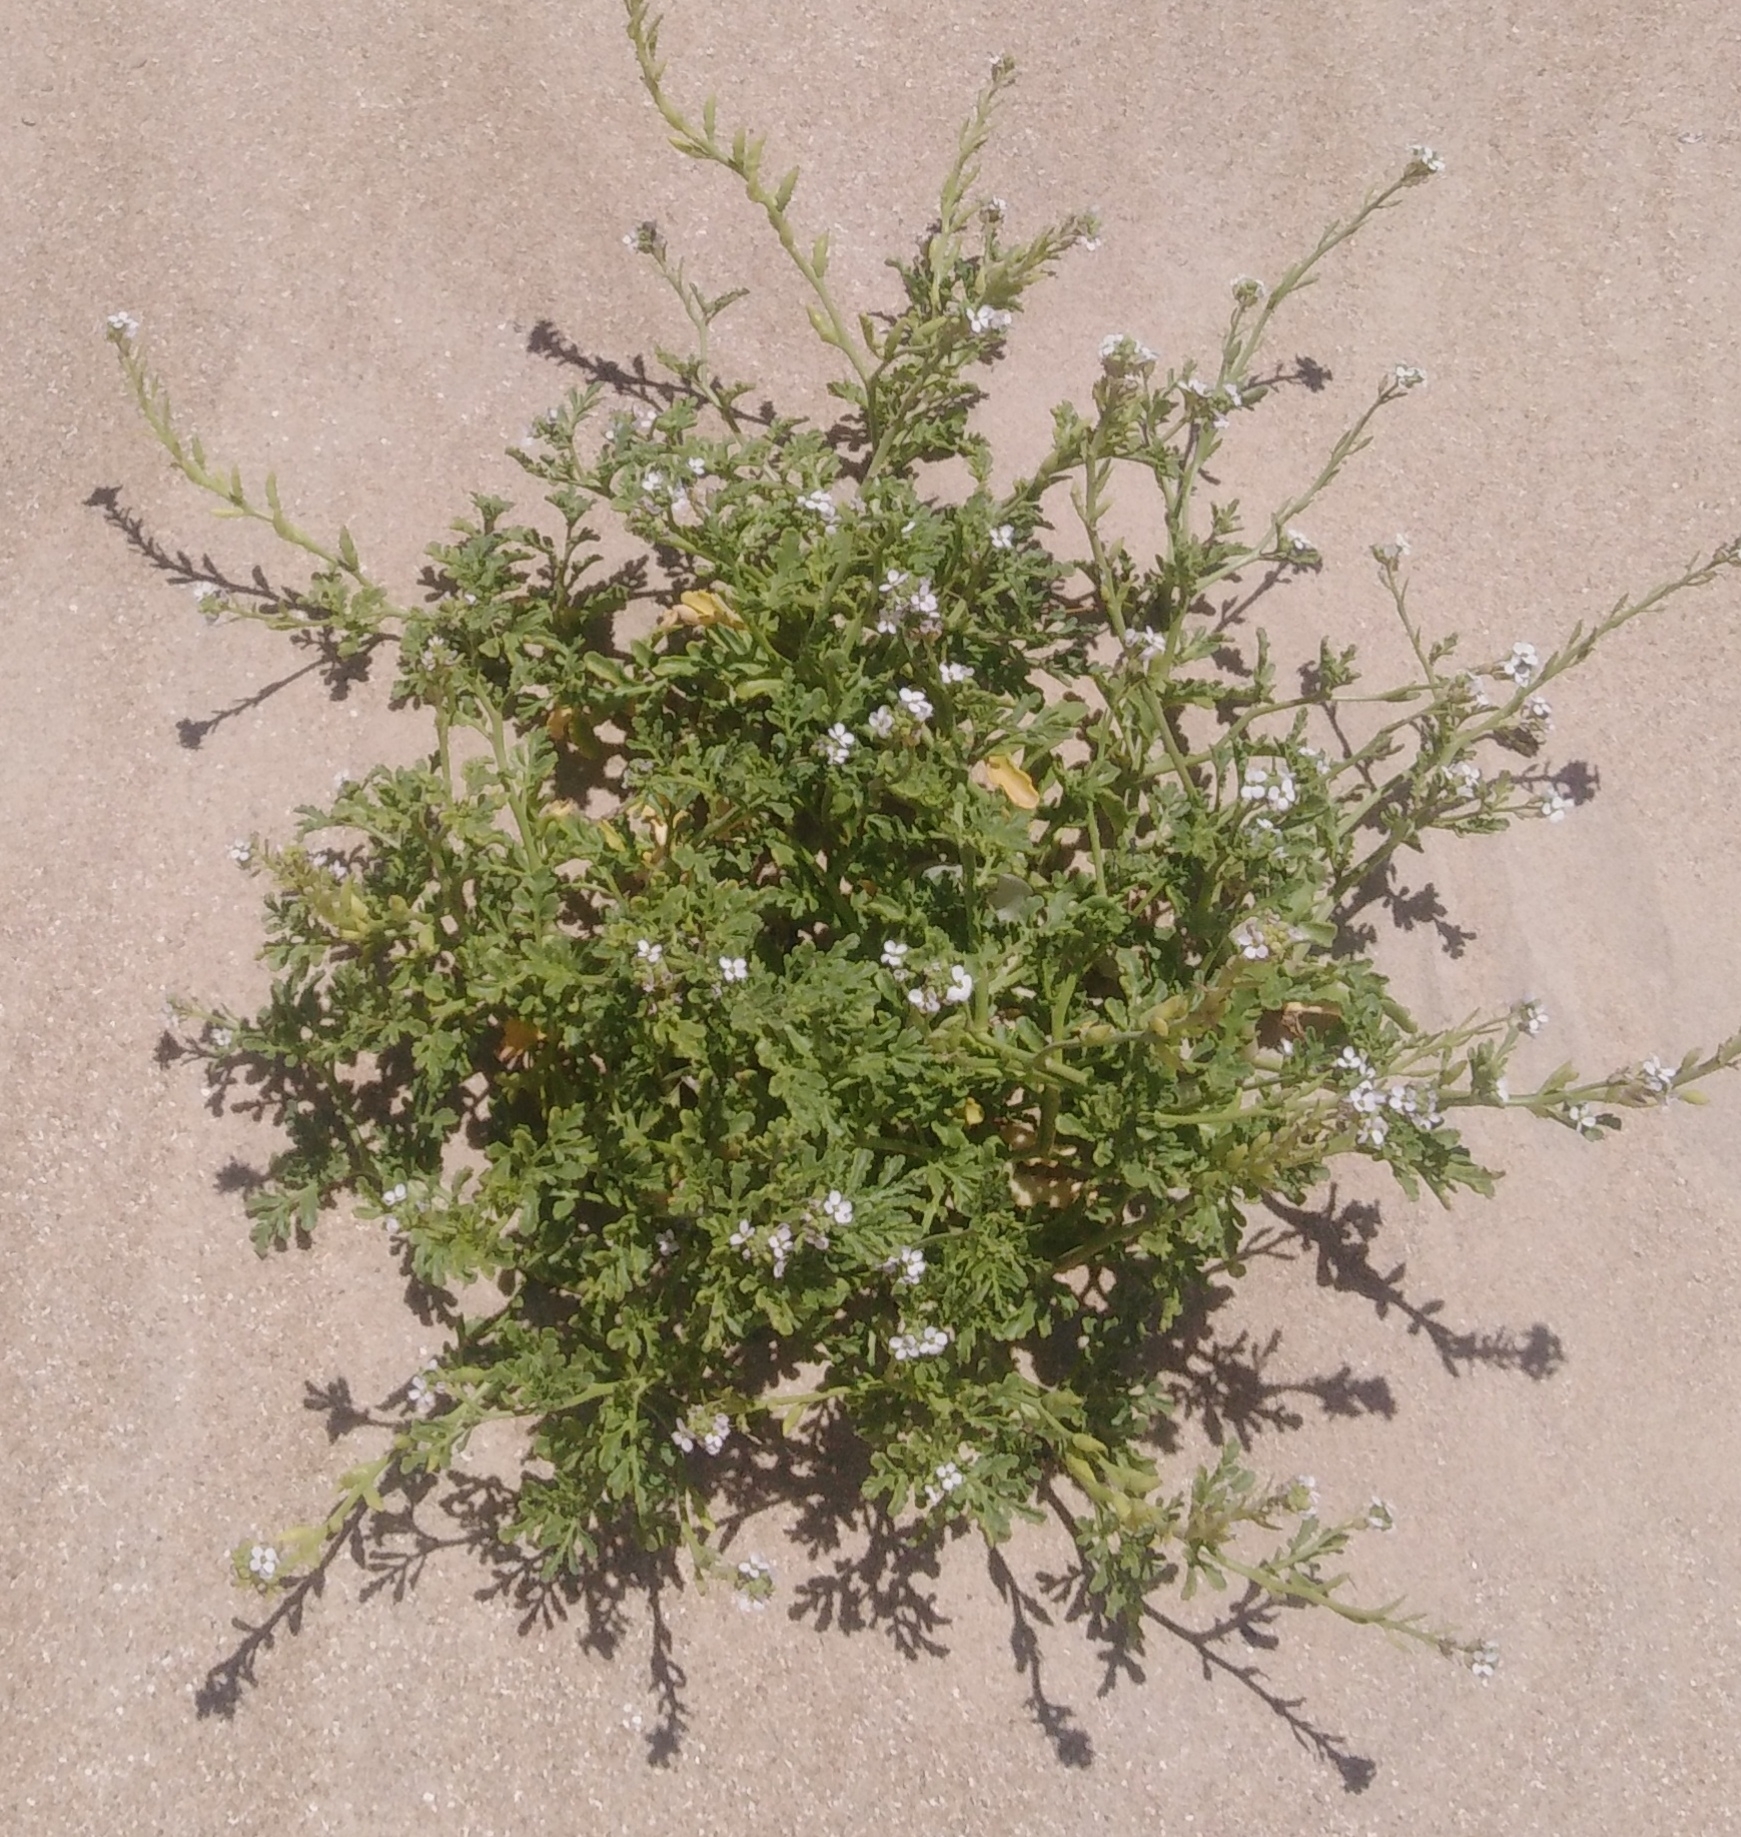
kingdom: Plantae
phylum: Tracheophyta
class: Magnoliopsida
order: Brassicales
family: Brassicaceae
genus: Cakile
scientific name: Cakile maritima
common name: Sea rocket
